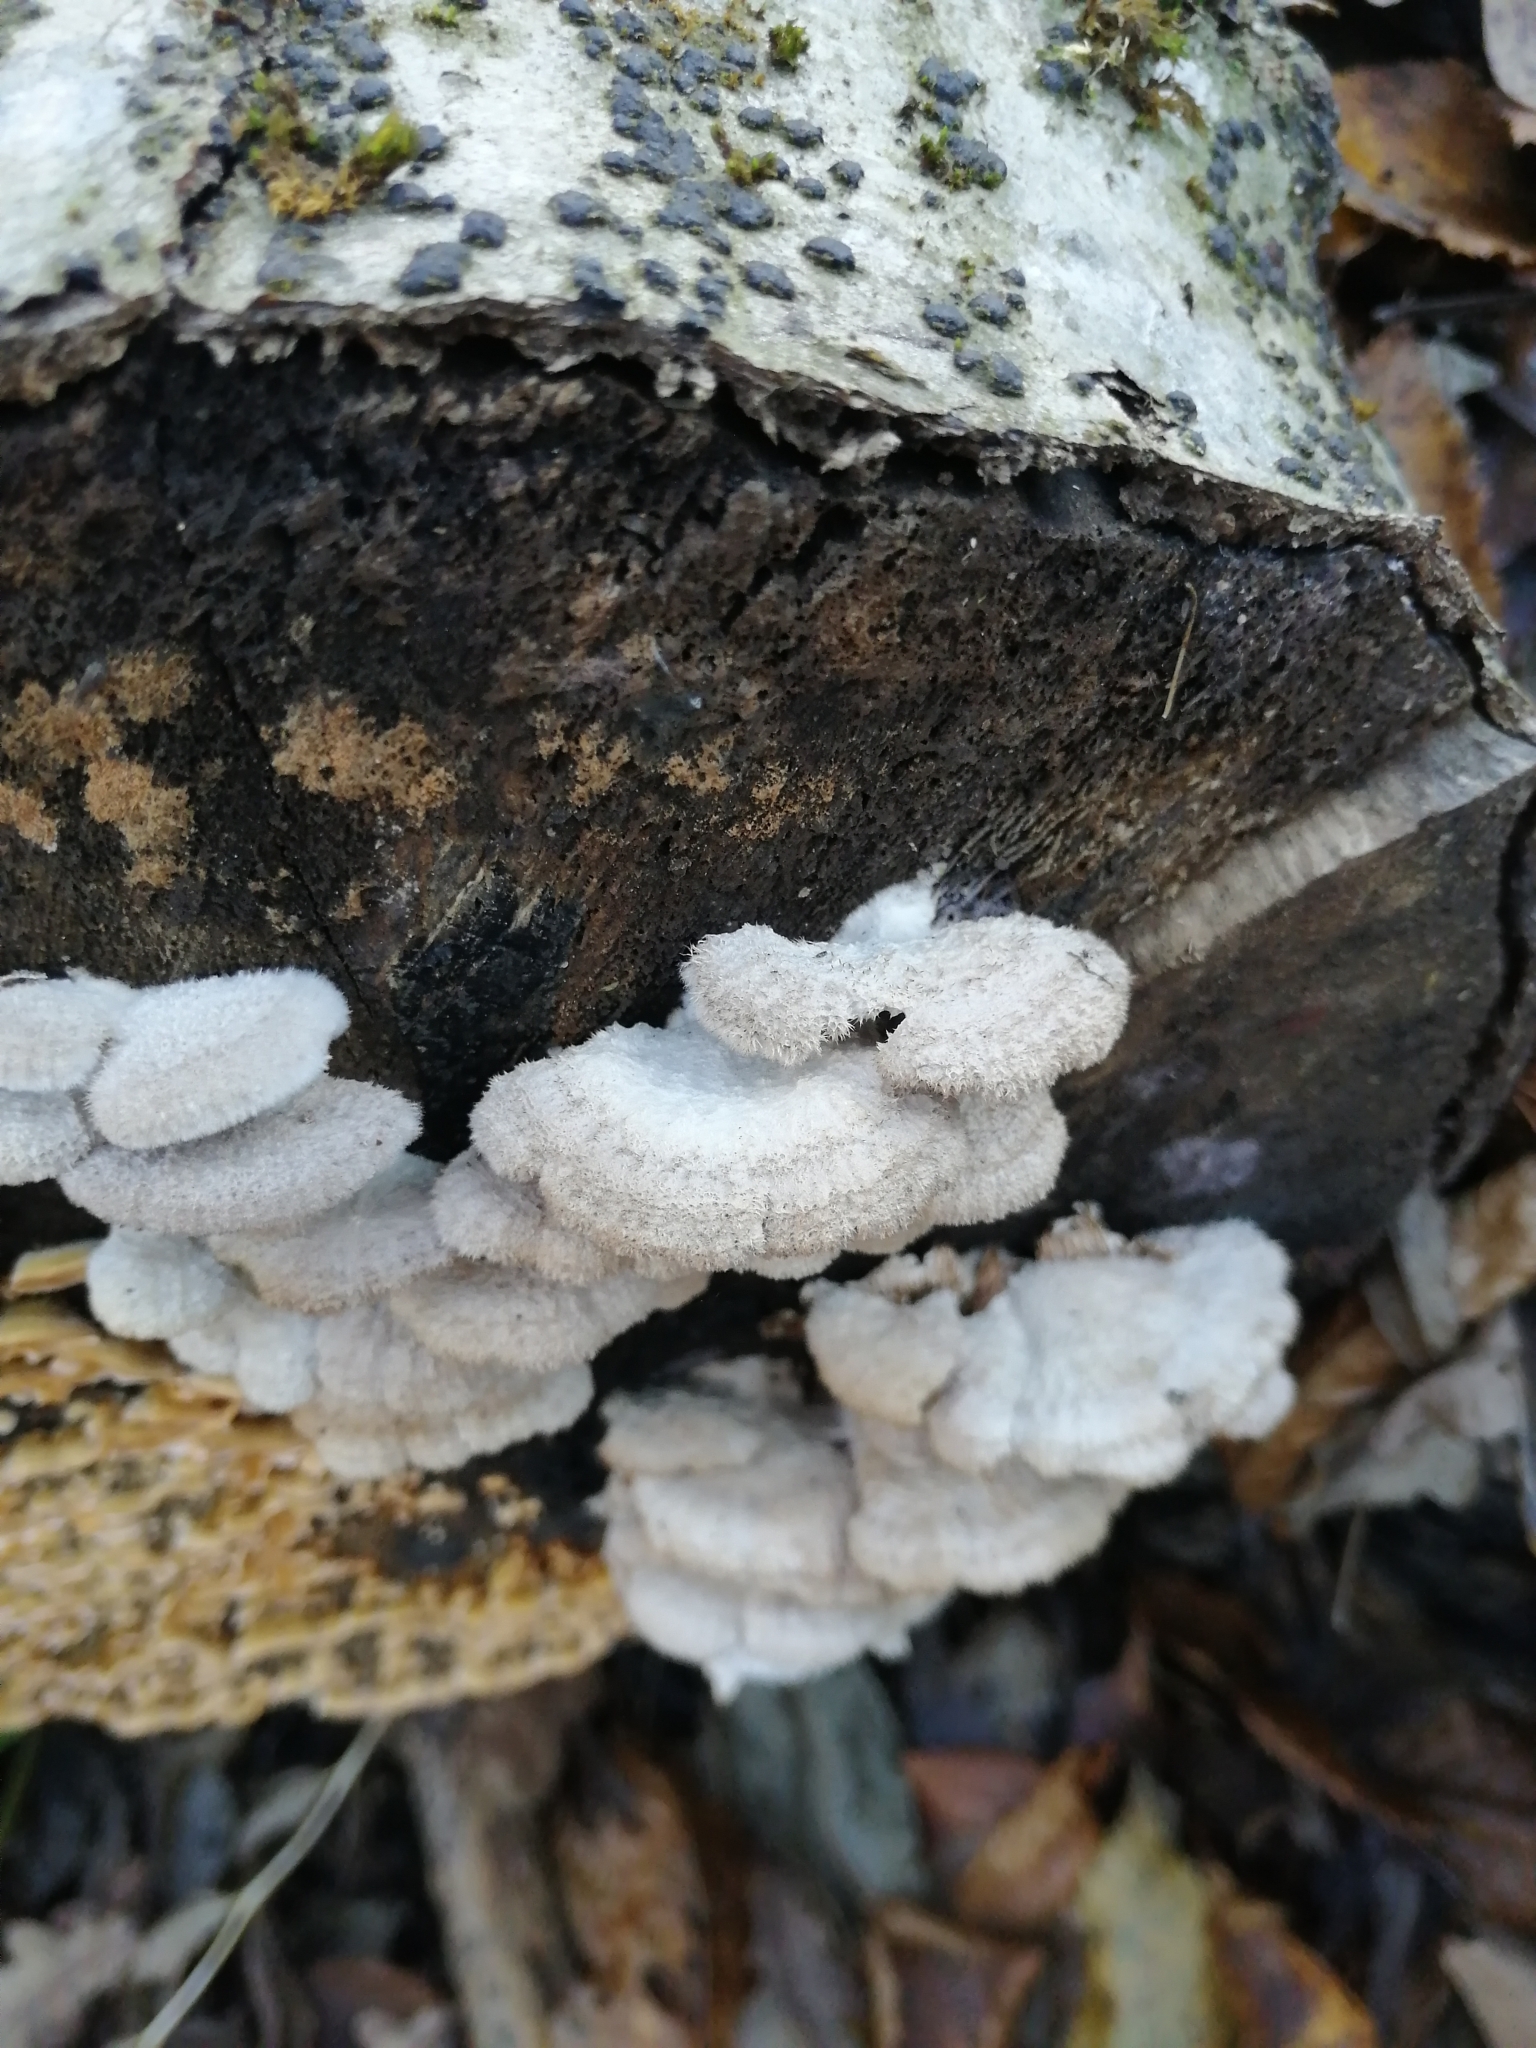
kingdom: Fungi
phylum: Basidiomycota
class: Agaricomycetes
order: Agaricales
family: Schizophyllaceae
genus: Schizophyllum
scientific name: Schizophyllum commune
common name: Common porecrust
